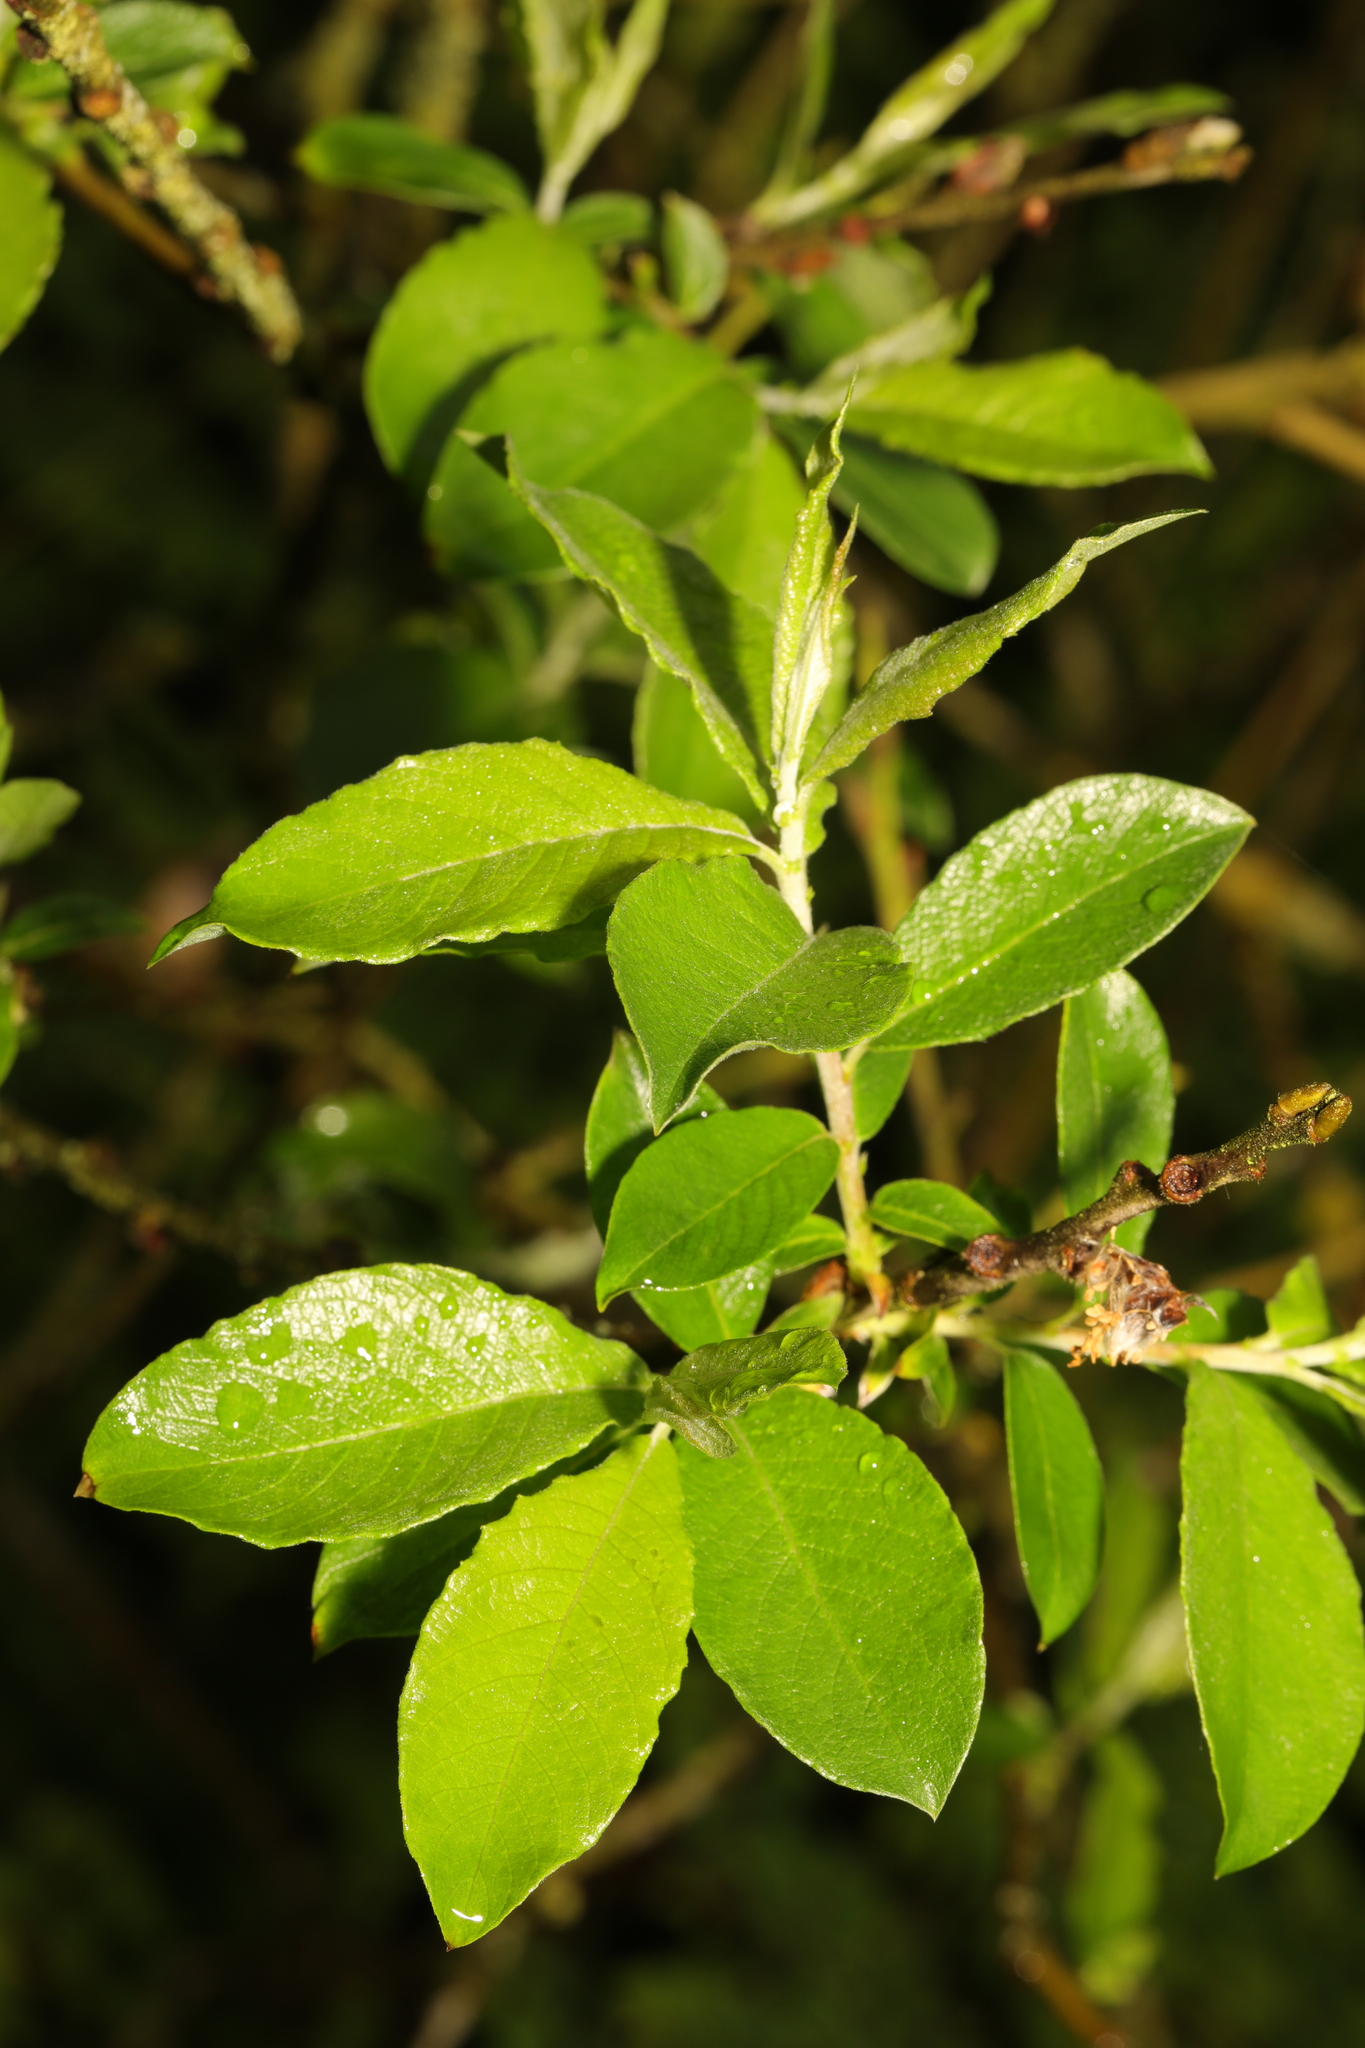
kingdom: Plantae
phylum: Tracheophyta
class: Magnoliopsida
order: Malpighiales
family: Salicaceae
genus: Salix
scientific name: Salix caprea
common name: Goat willow
